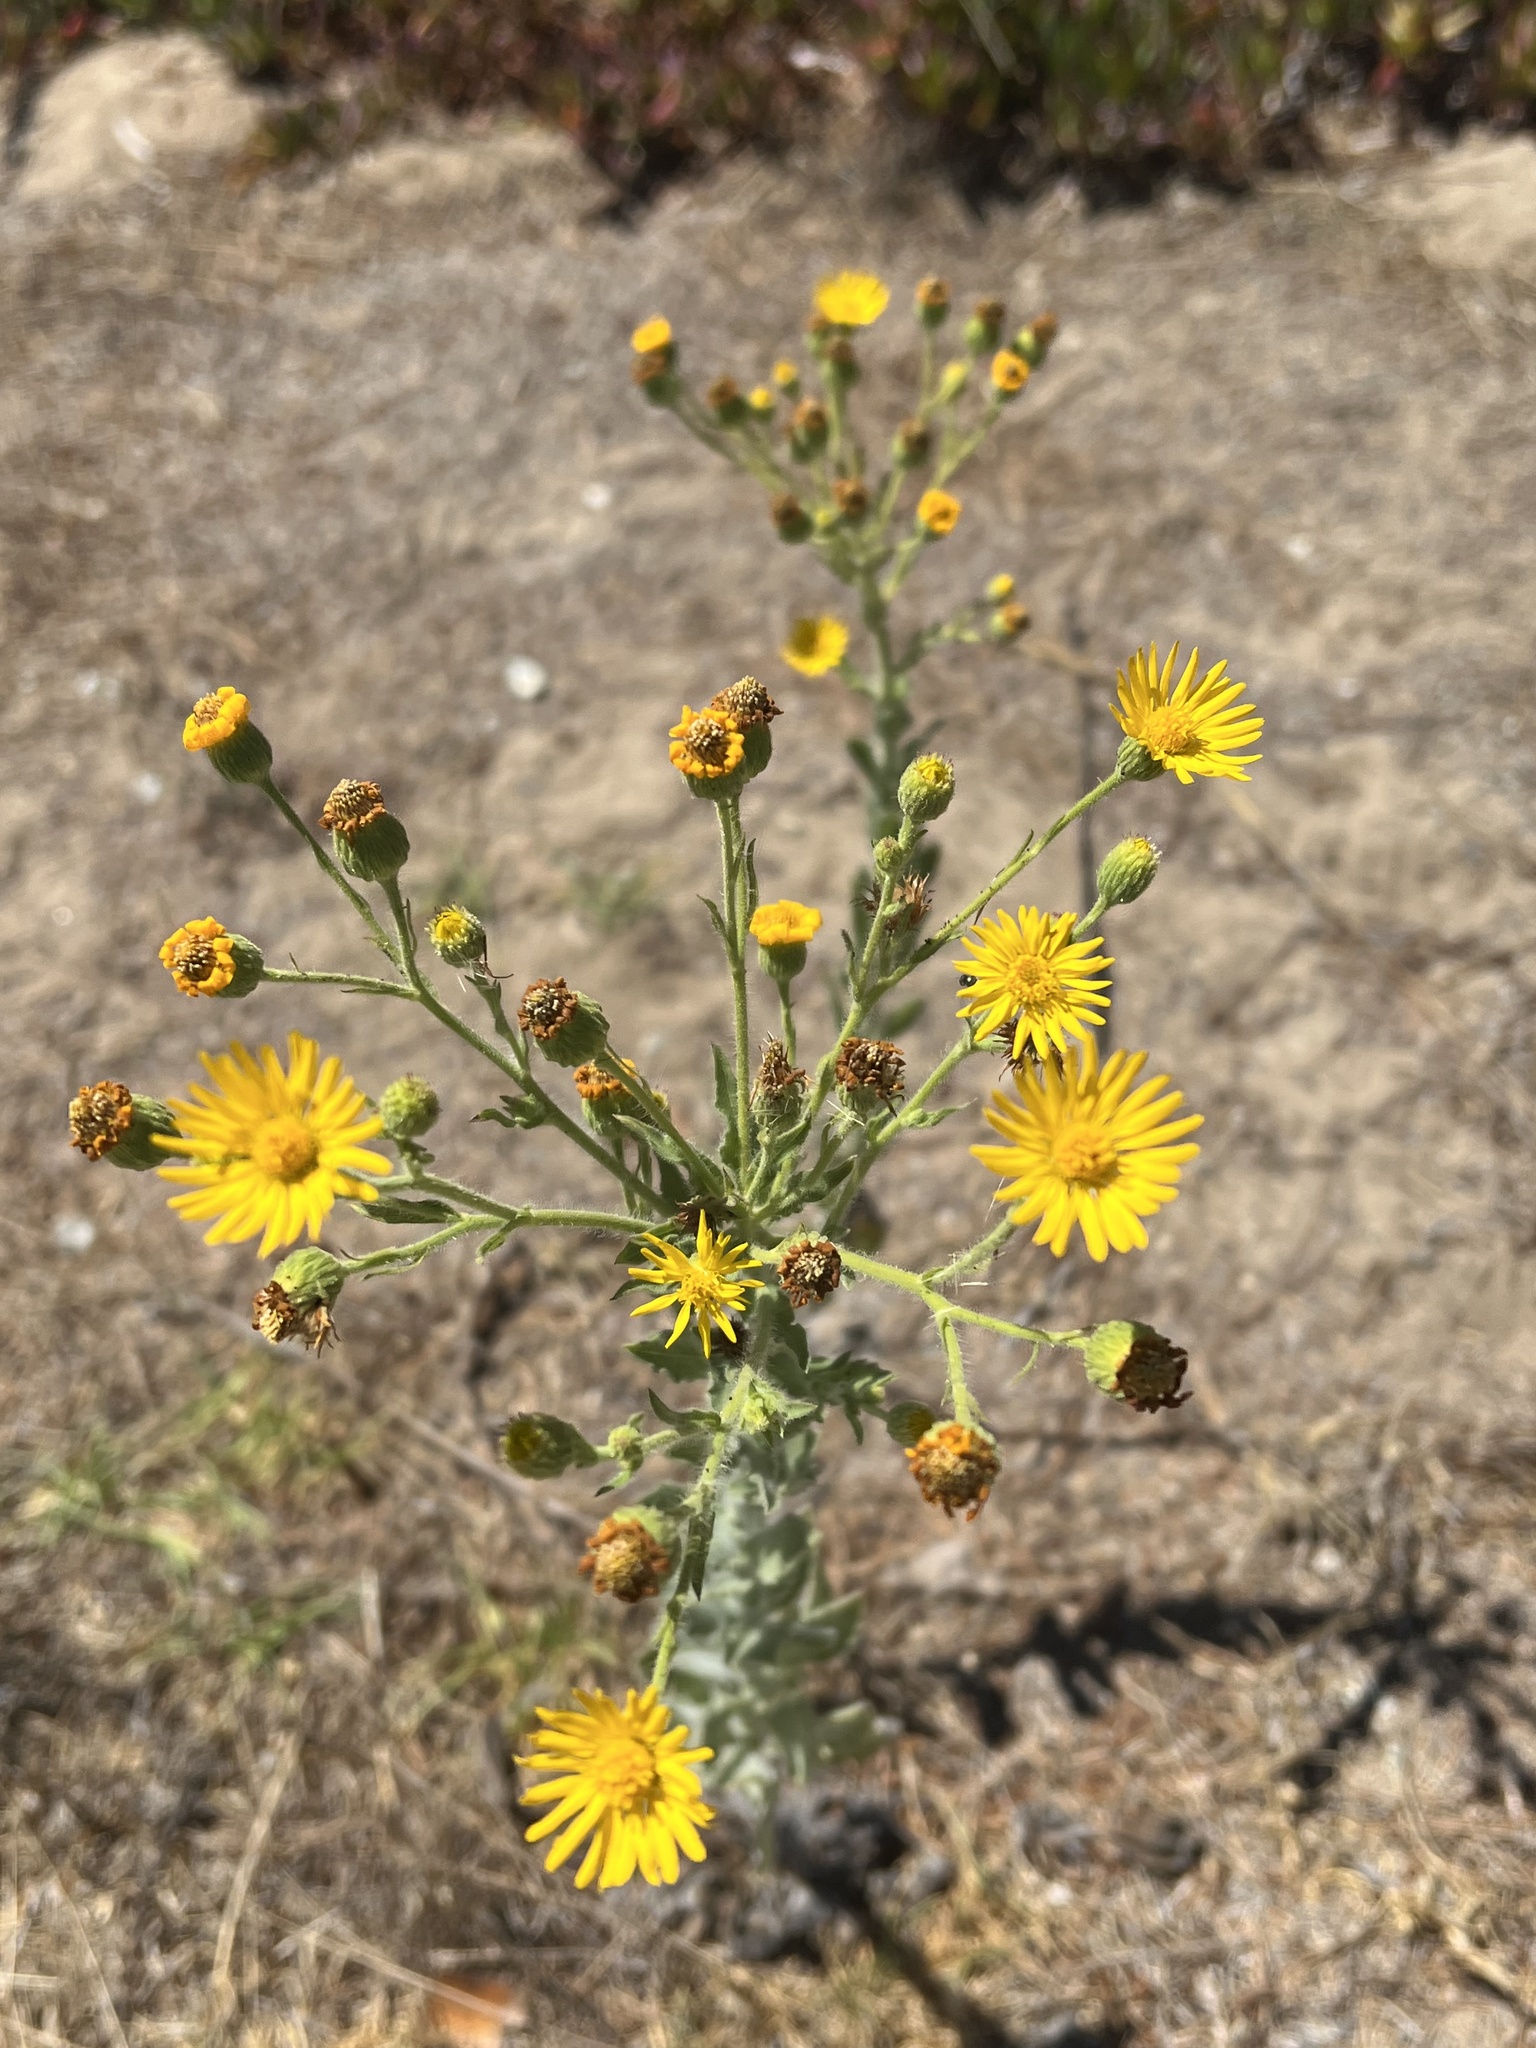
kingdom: Plantae
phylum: Tracheophyta
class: Magnoliopsida
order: Asterales
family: Asteraceae
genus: Heterotheca
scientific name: Heterotheca grandiflora
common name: Telegraphweed
